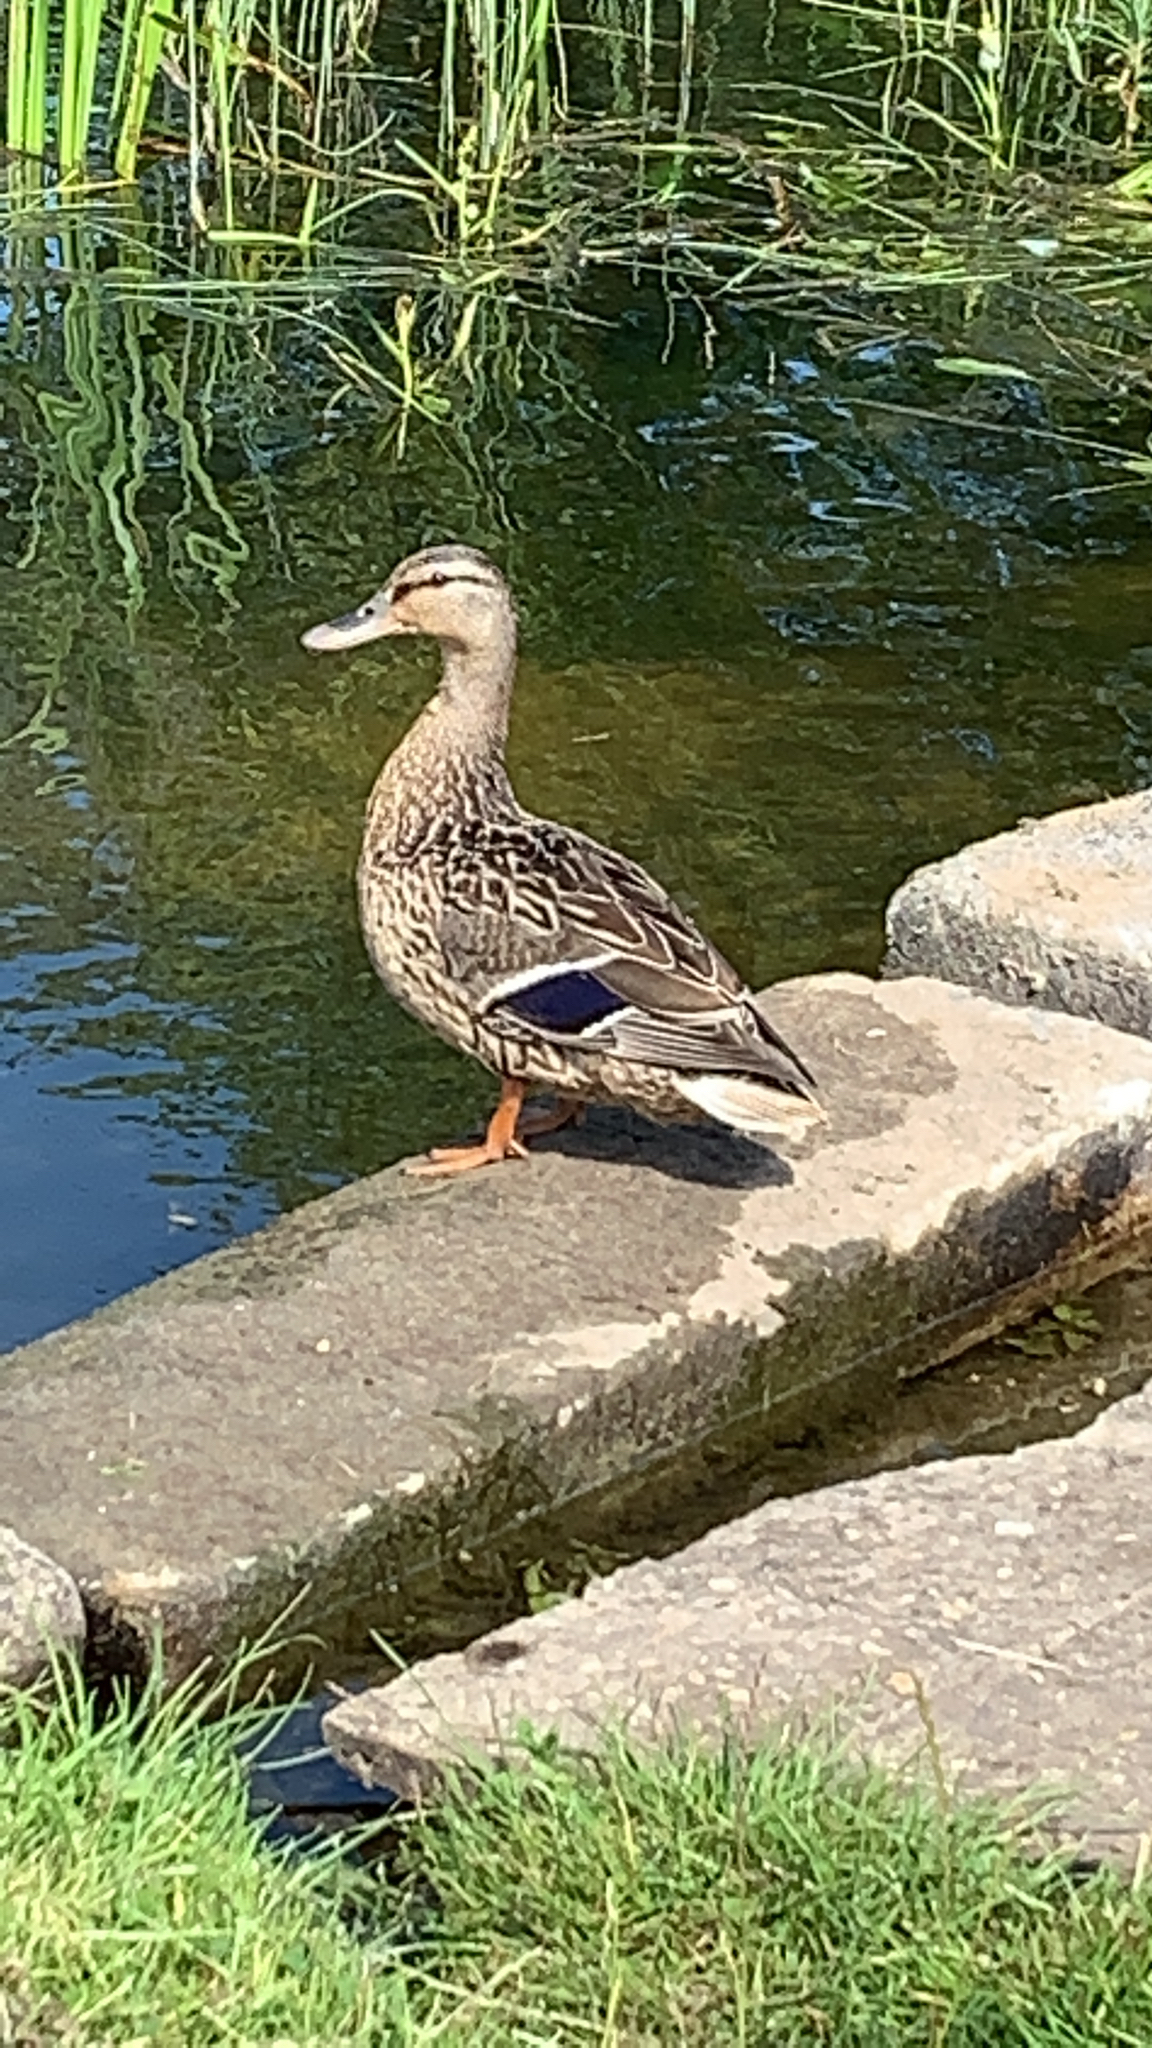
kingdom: Animalia
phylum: Chordata
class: Aves
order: Anseriformes
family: Anatidae
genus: Anas
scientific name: Anas platyrhynchos
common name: Mallard
